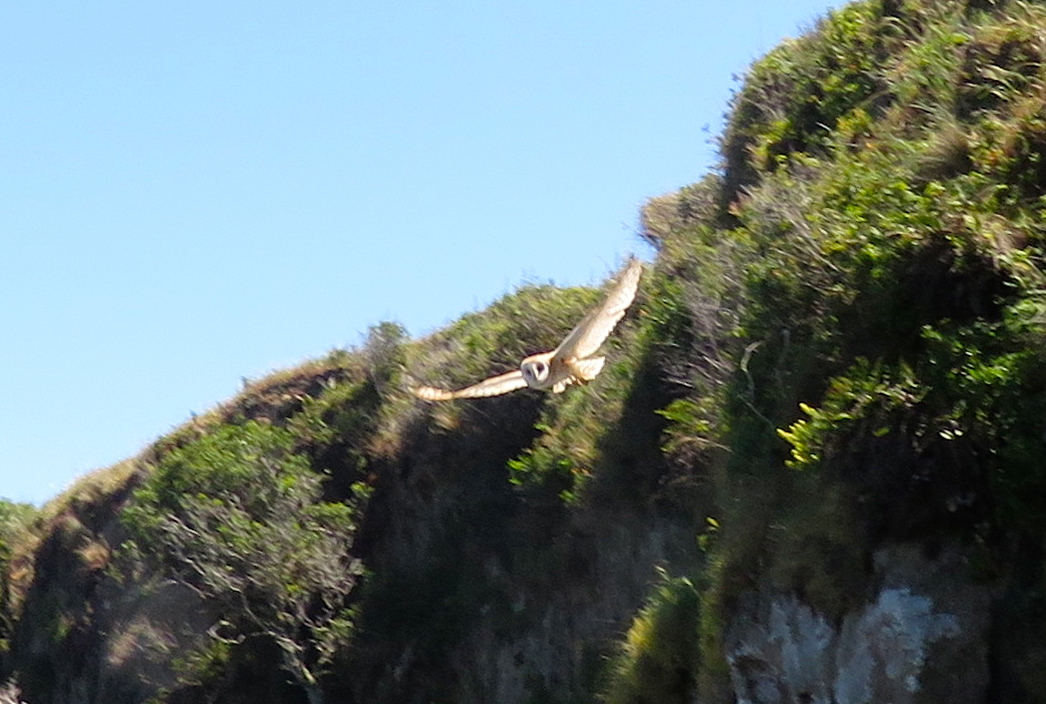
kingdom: Animalia
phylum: Chordata
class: Aves
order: Strigiformes
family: Tytonidae
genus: Tyto
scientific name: Tyto alba
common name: Barn owl
